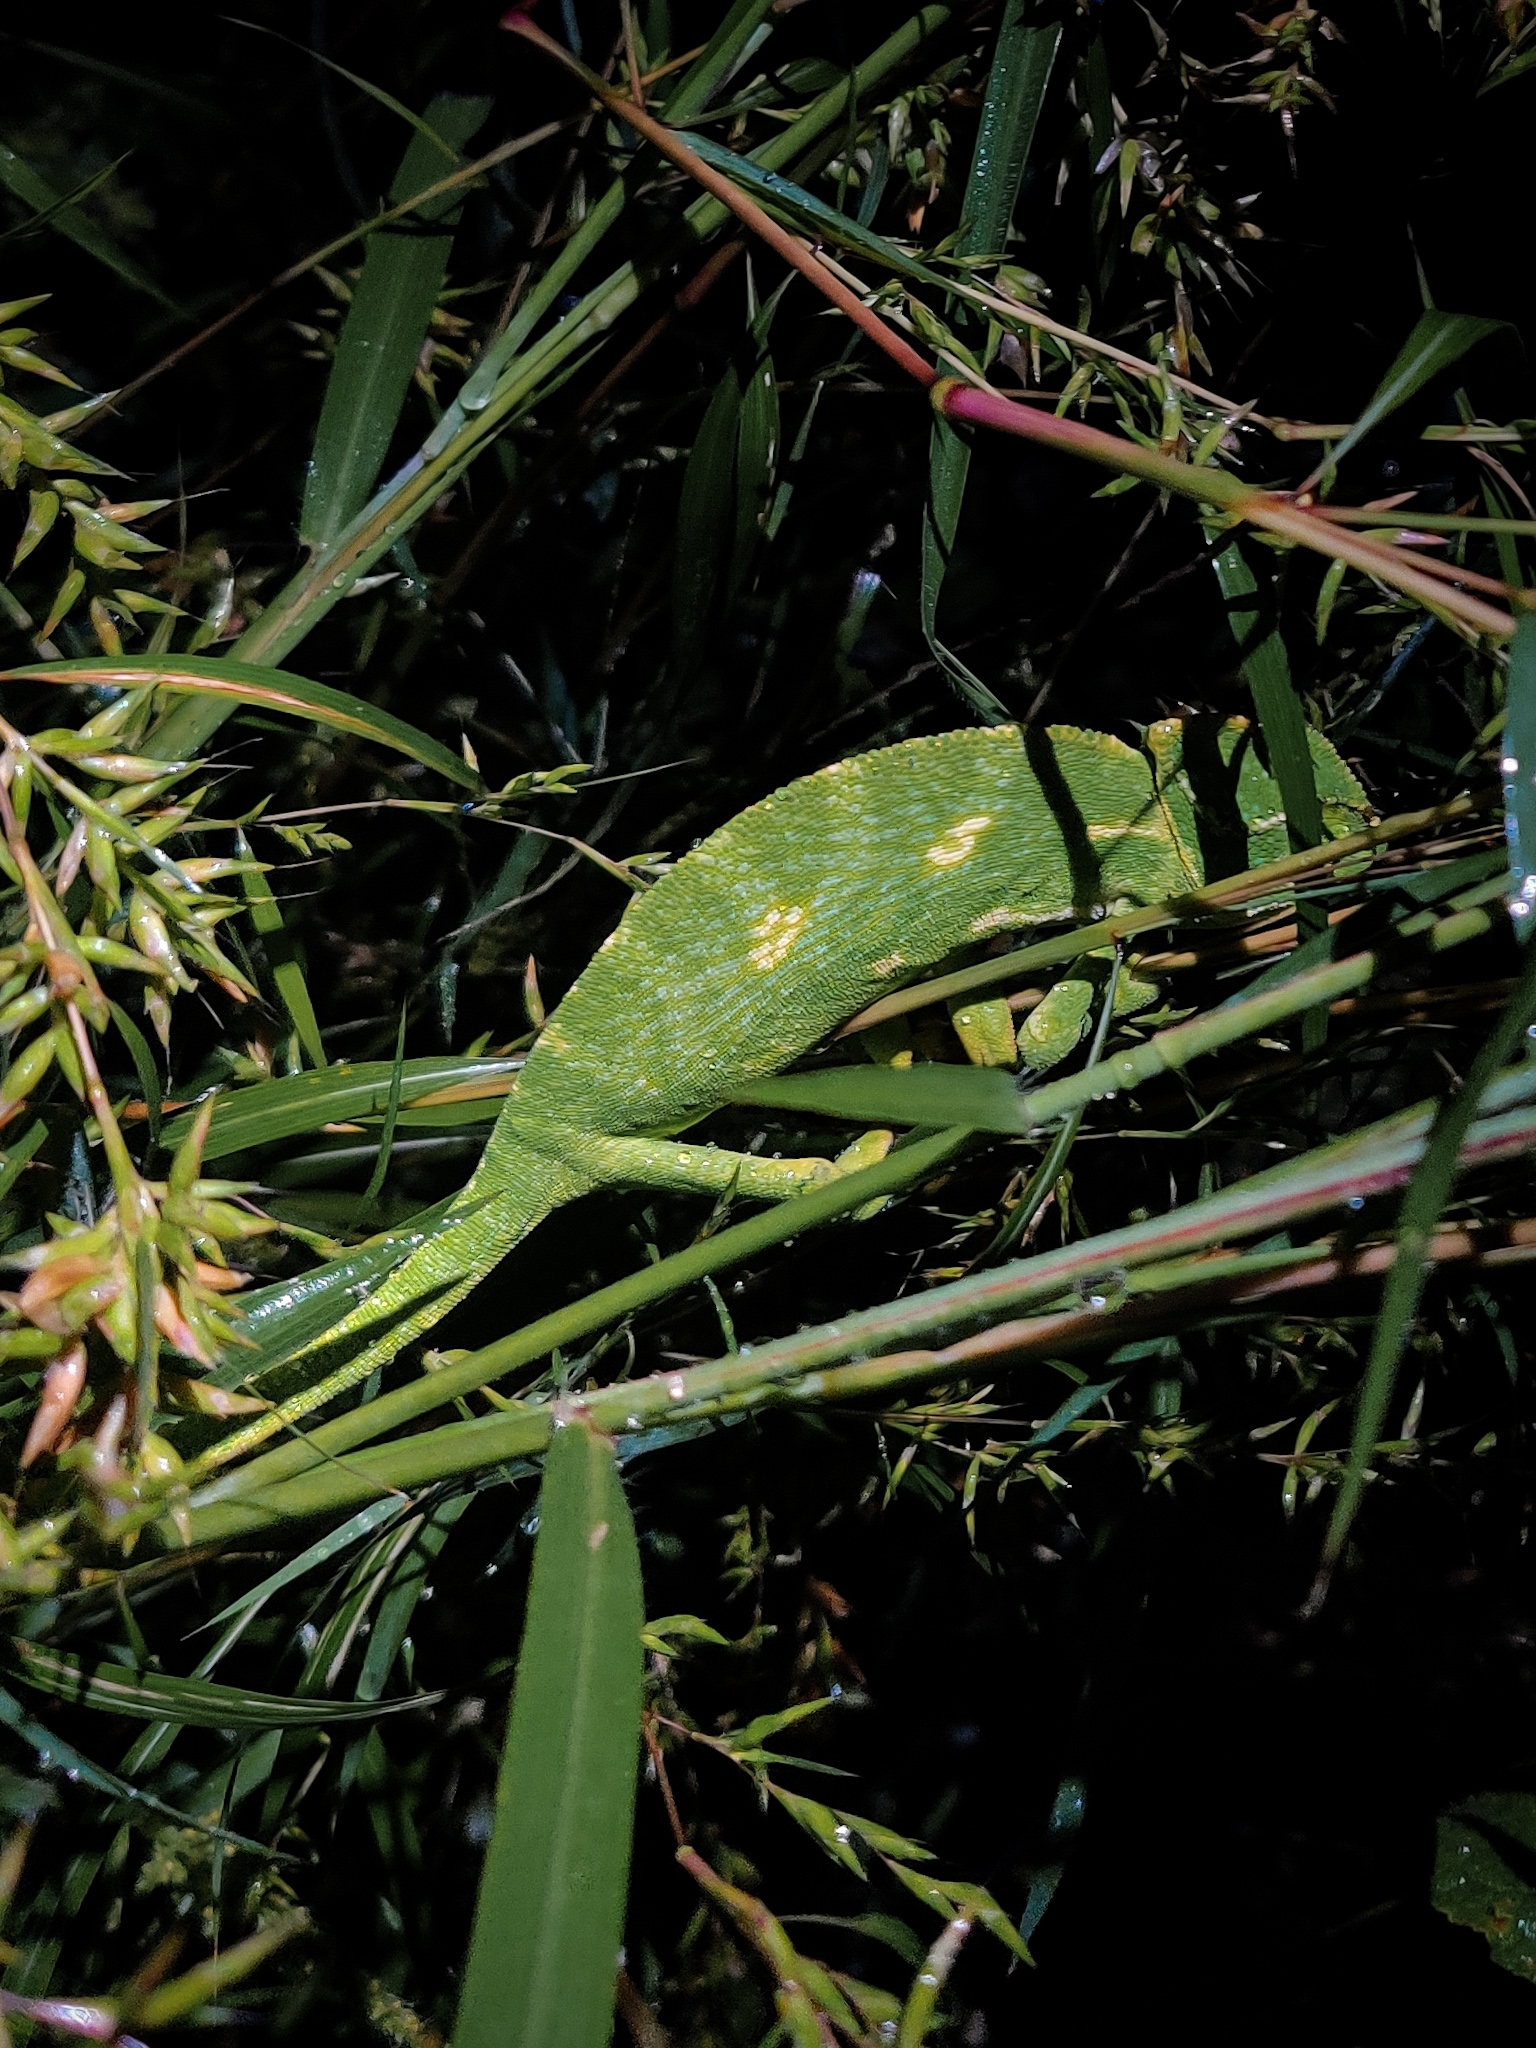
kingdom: Animalia
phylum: Chordata
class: Squamata
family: Chamaeleonidae
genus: Chamaeleo
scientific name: Chamaeleo zeylanicus
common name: Indian chameleon
